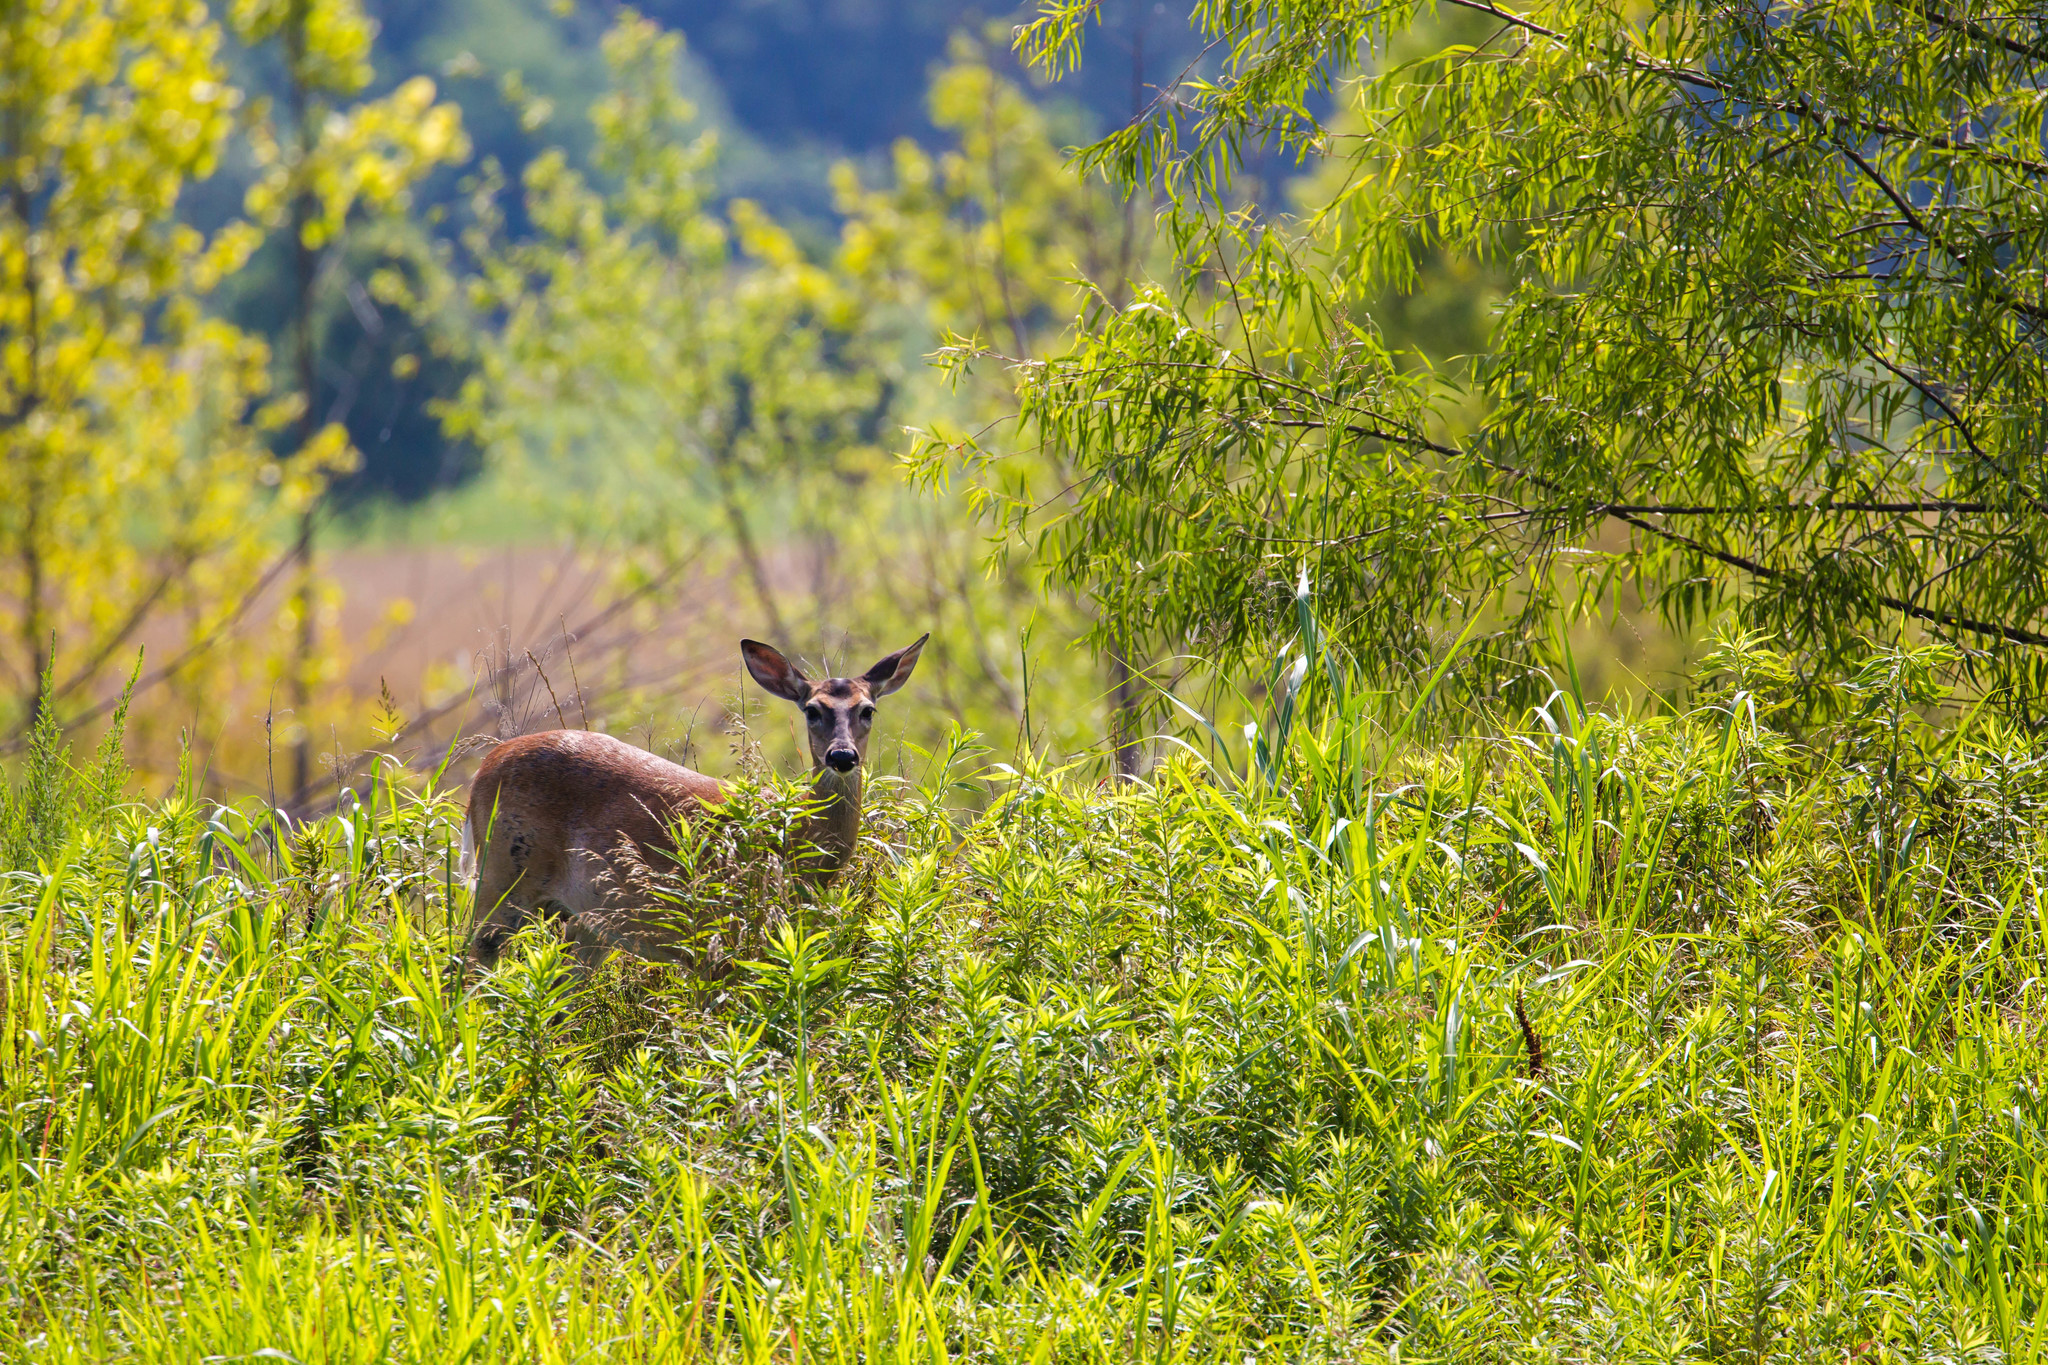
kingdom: Animalia
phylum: Chordata
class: Mammalia
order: Artiodactyla
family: Cervidae
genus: Odocoileus
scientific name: Odocoileus virginianus
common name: White-tailed deer
